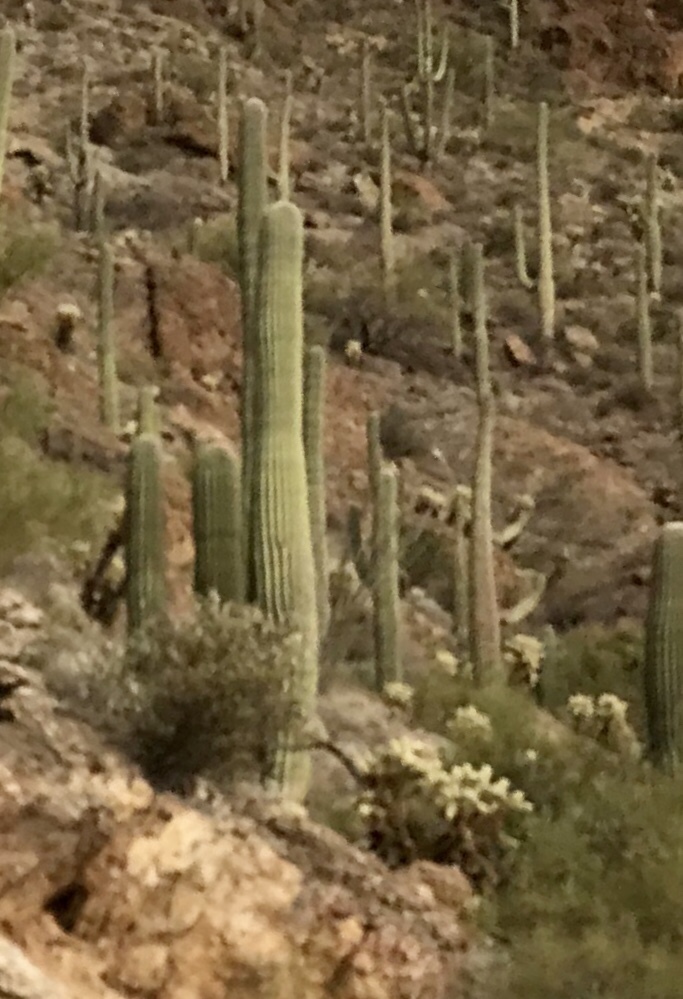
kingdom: Plantae
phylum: Tracheophyta
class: Magnoliopsida
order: Caryophyllales
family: Cactaceae
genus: Carnegiea
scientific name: Carnegiea gigantea
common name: Saguaro
